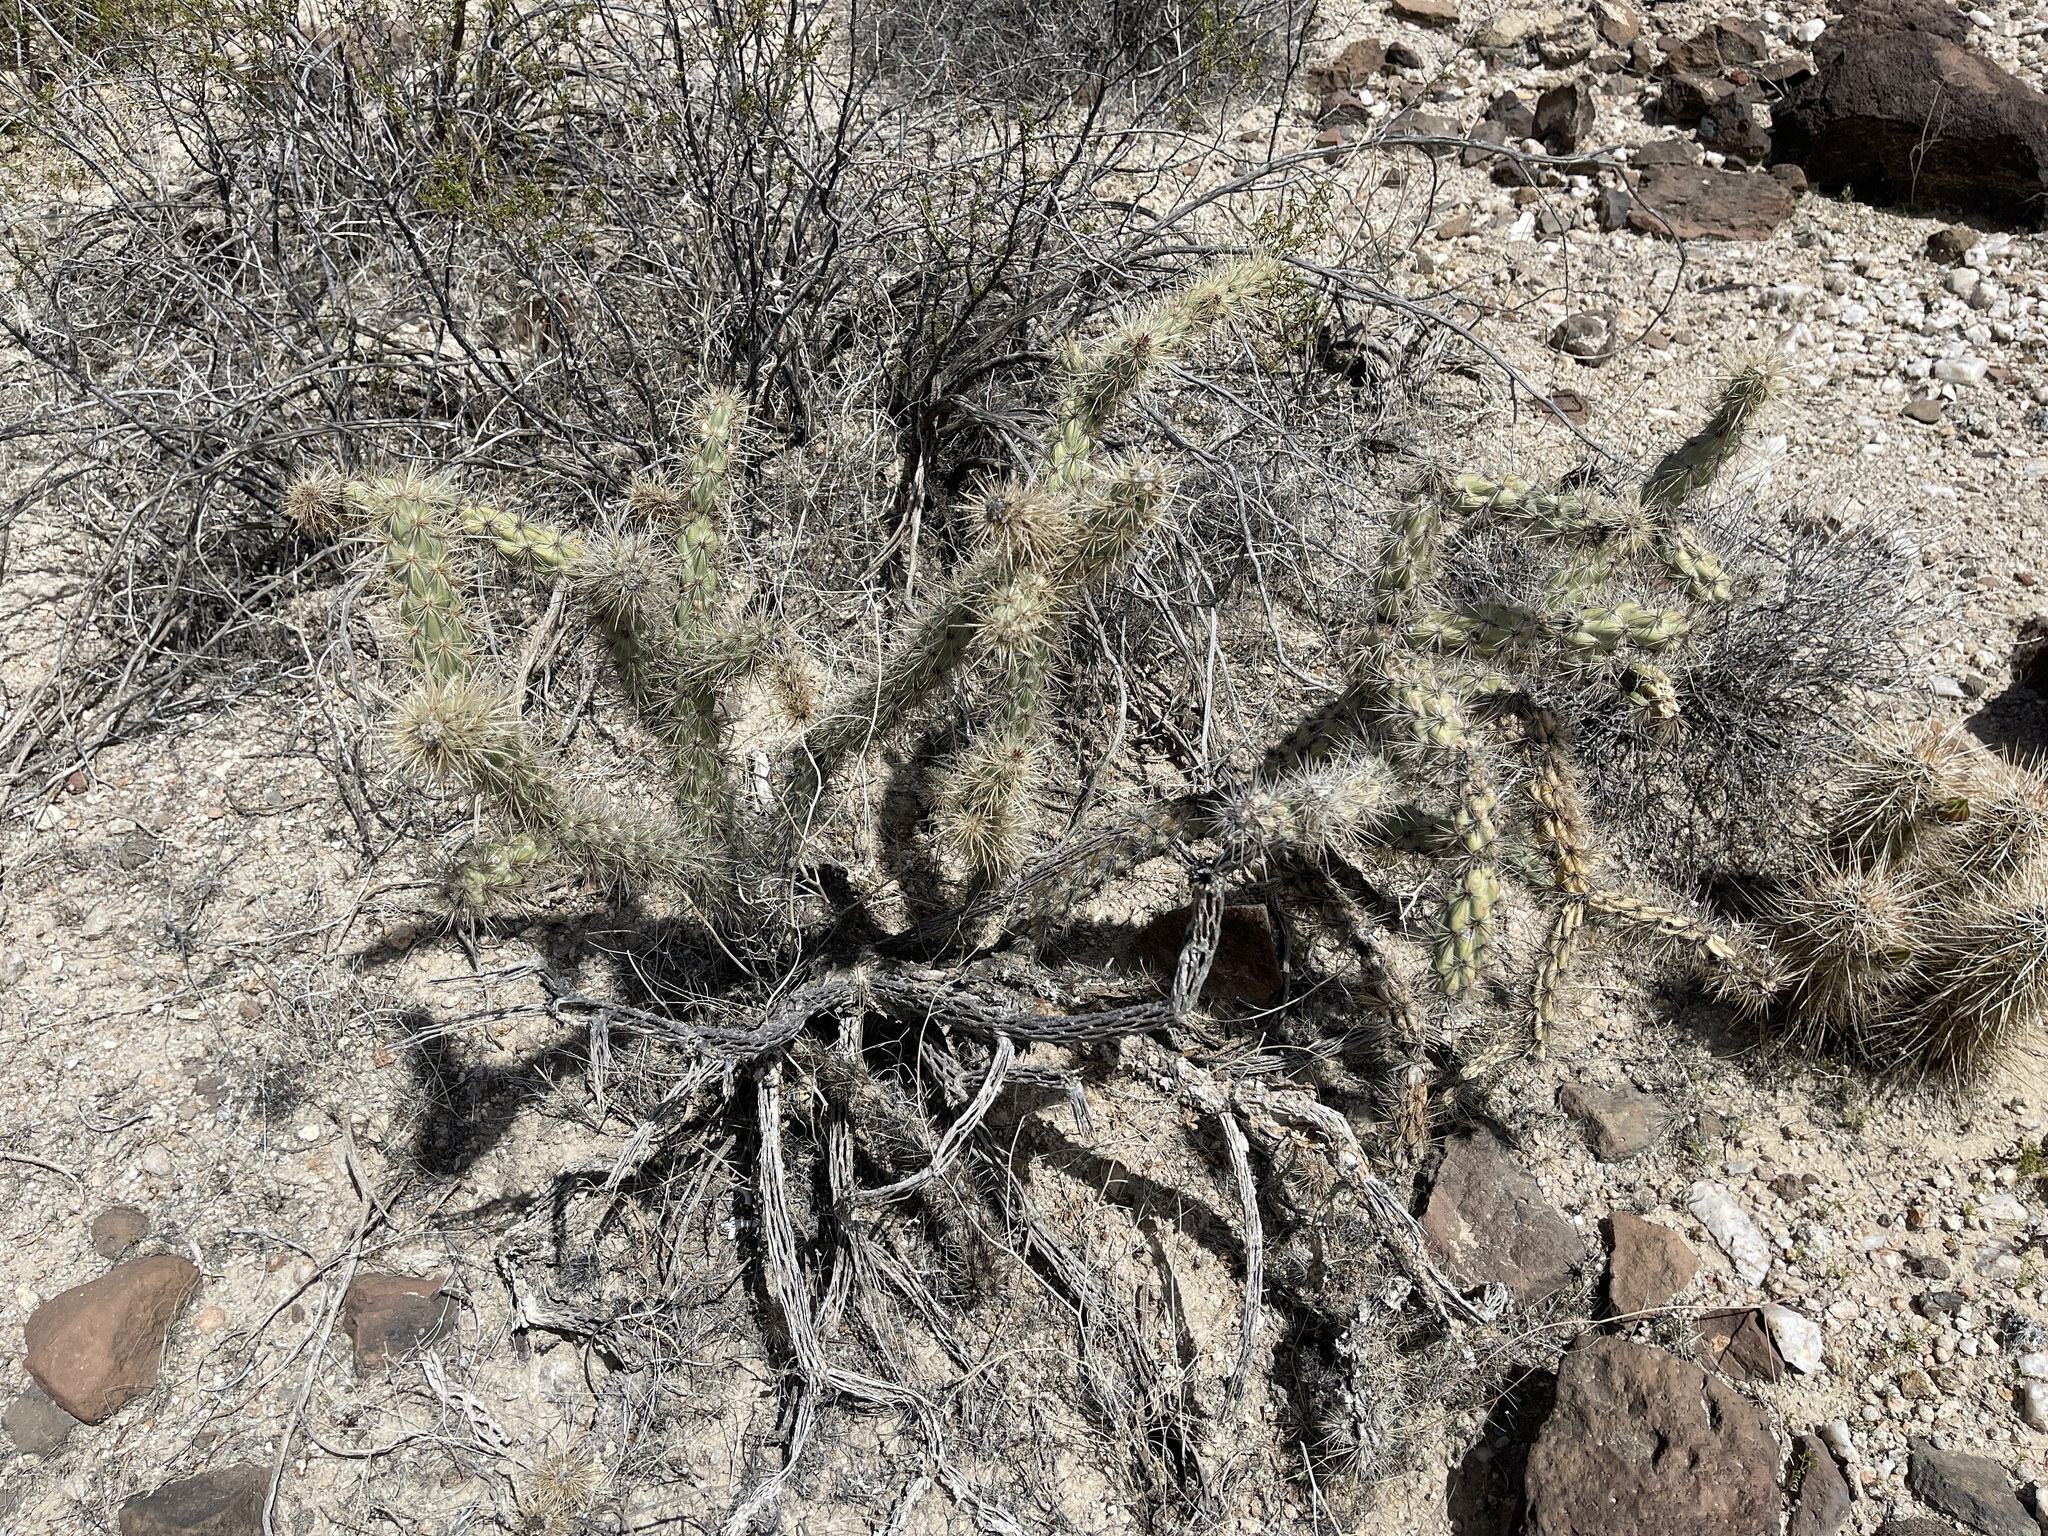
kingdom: Plantae
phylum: Tracheophyta
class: Magnoliopsida
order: Caryophyllales
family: Cactaceae
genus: Cylindropuntia
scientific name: Cylindropuntia acanthocarpa
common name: Buckhorn cholla
